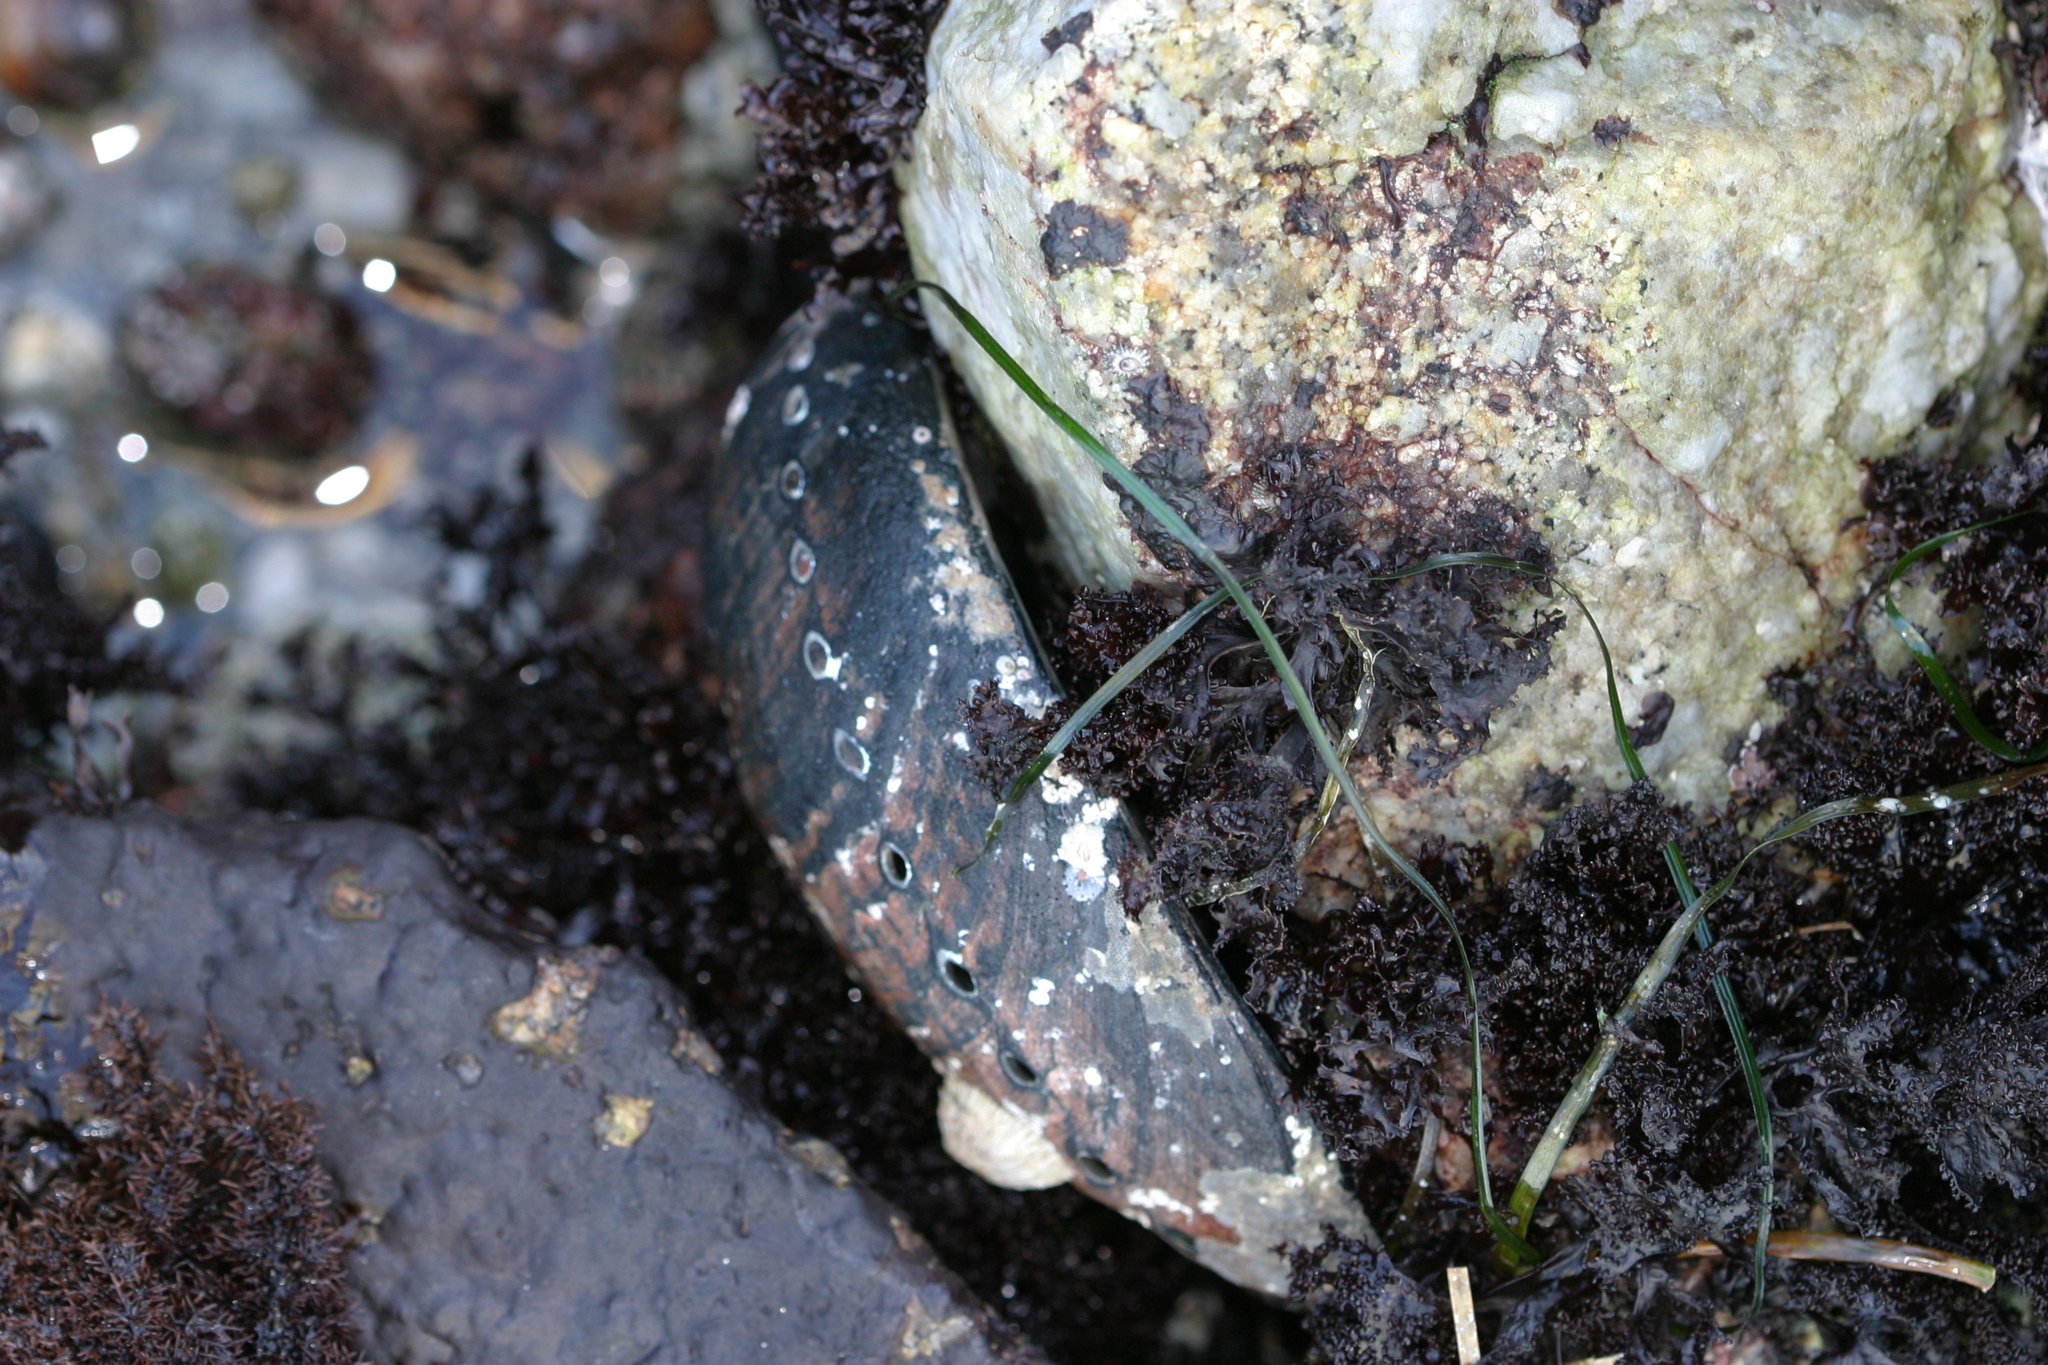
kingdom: Animalia
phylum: Mollusca
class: Gastropoda
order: Lepetellida
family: Haliotidae
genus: Haliotis
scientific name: Haliotis cracherodii
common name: Black abalone
